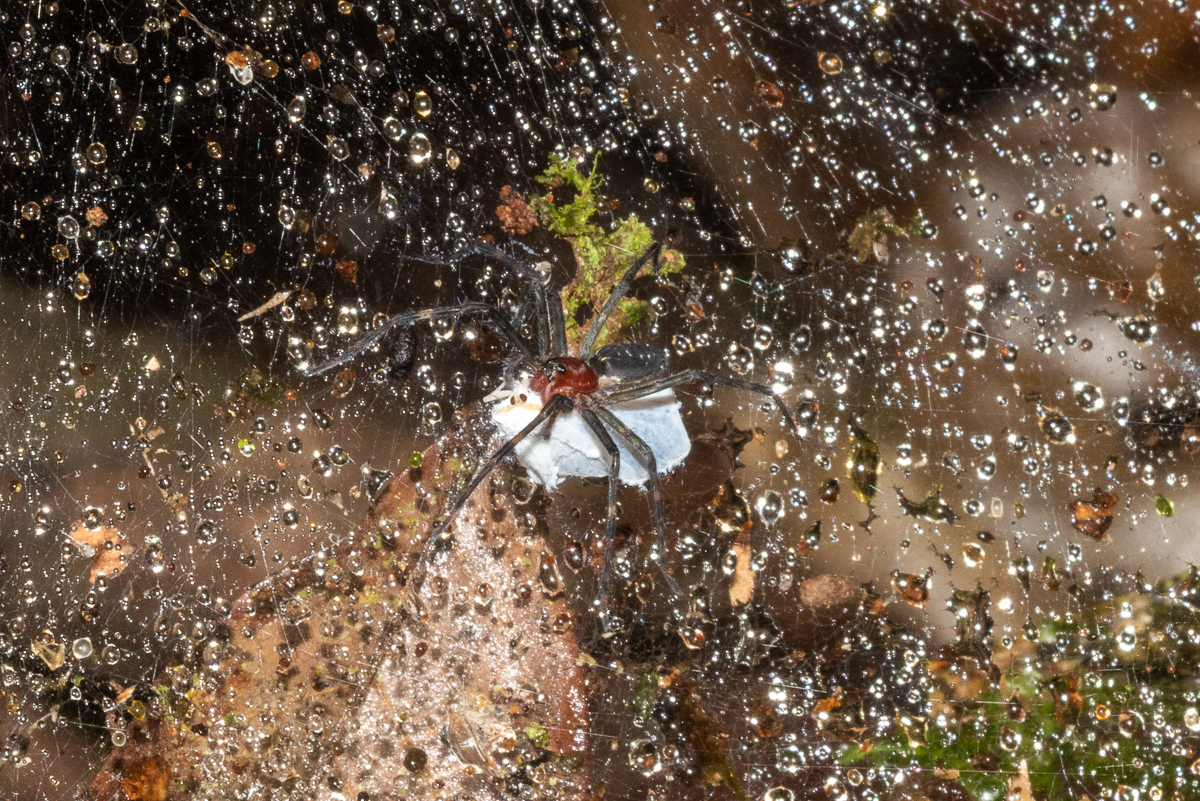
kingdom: Animalia
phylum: Arthropoda
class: Arachnida
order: Araneae
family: Lycosidae
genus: Aglaoctenus
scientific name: Aglaoctenus castaneus
